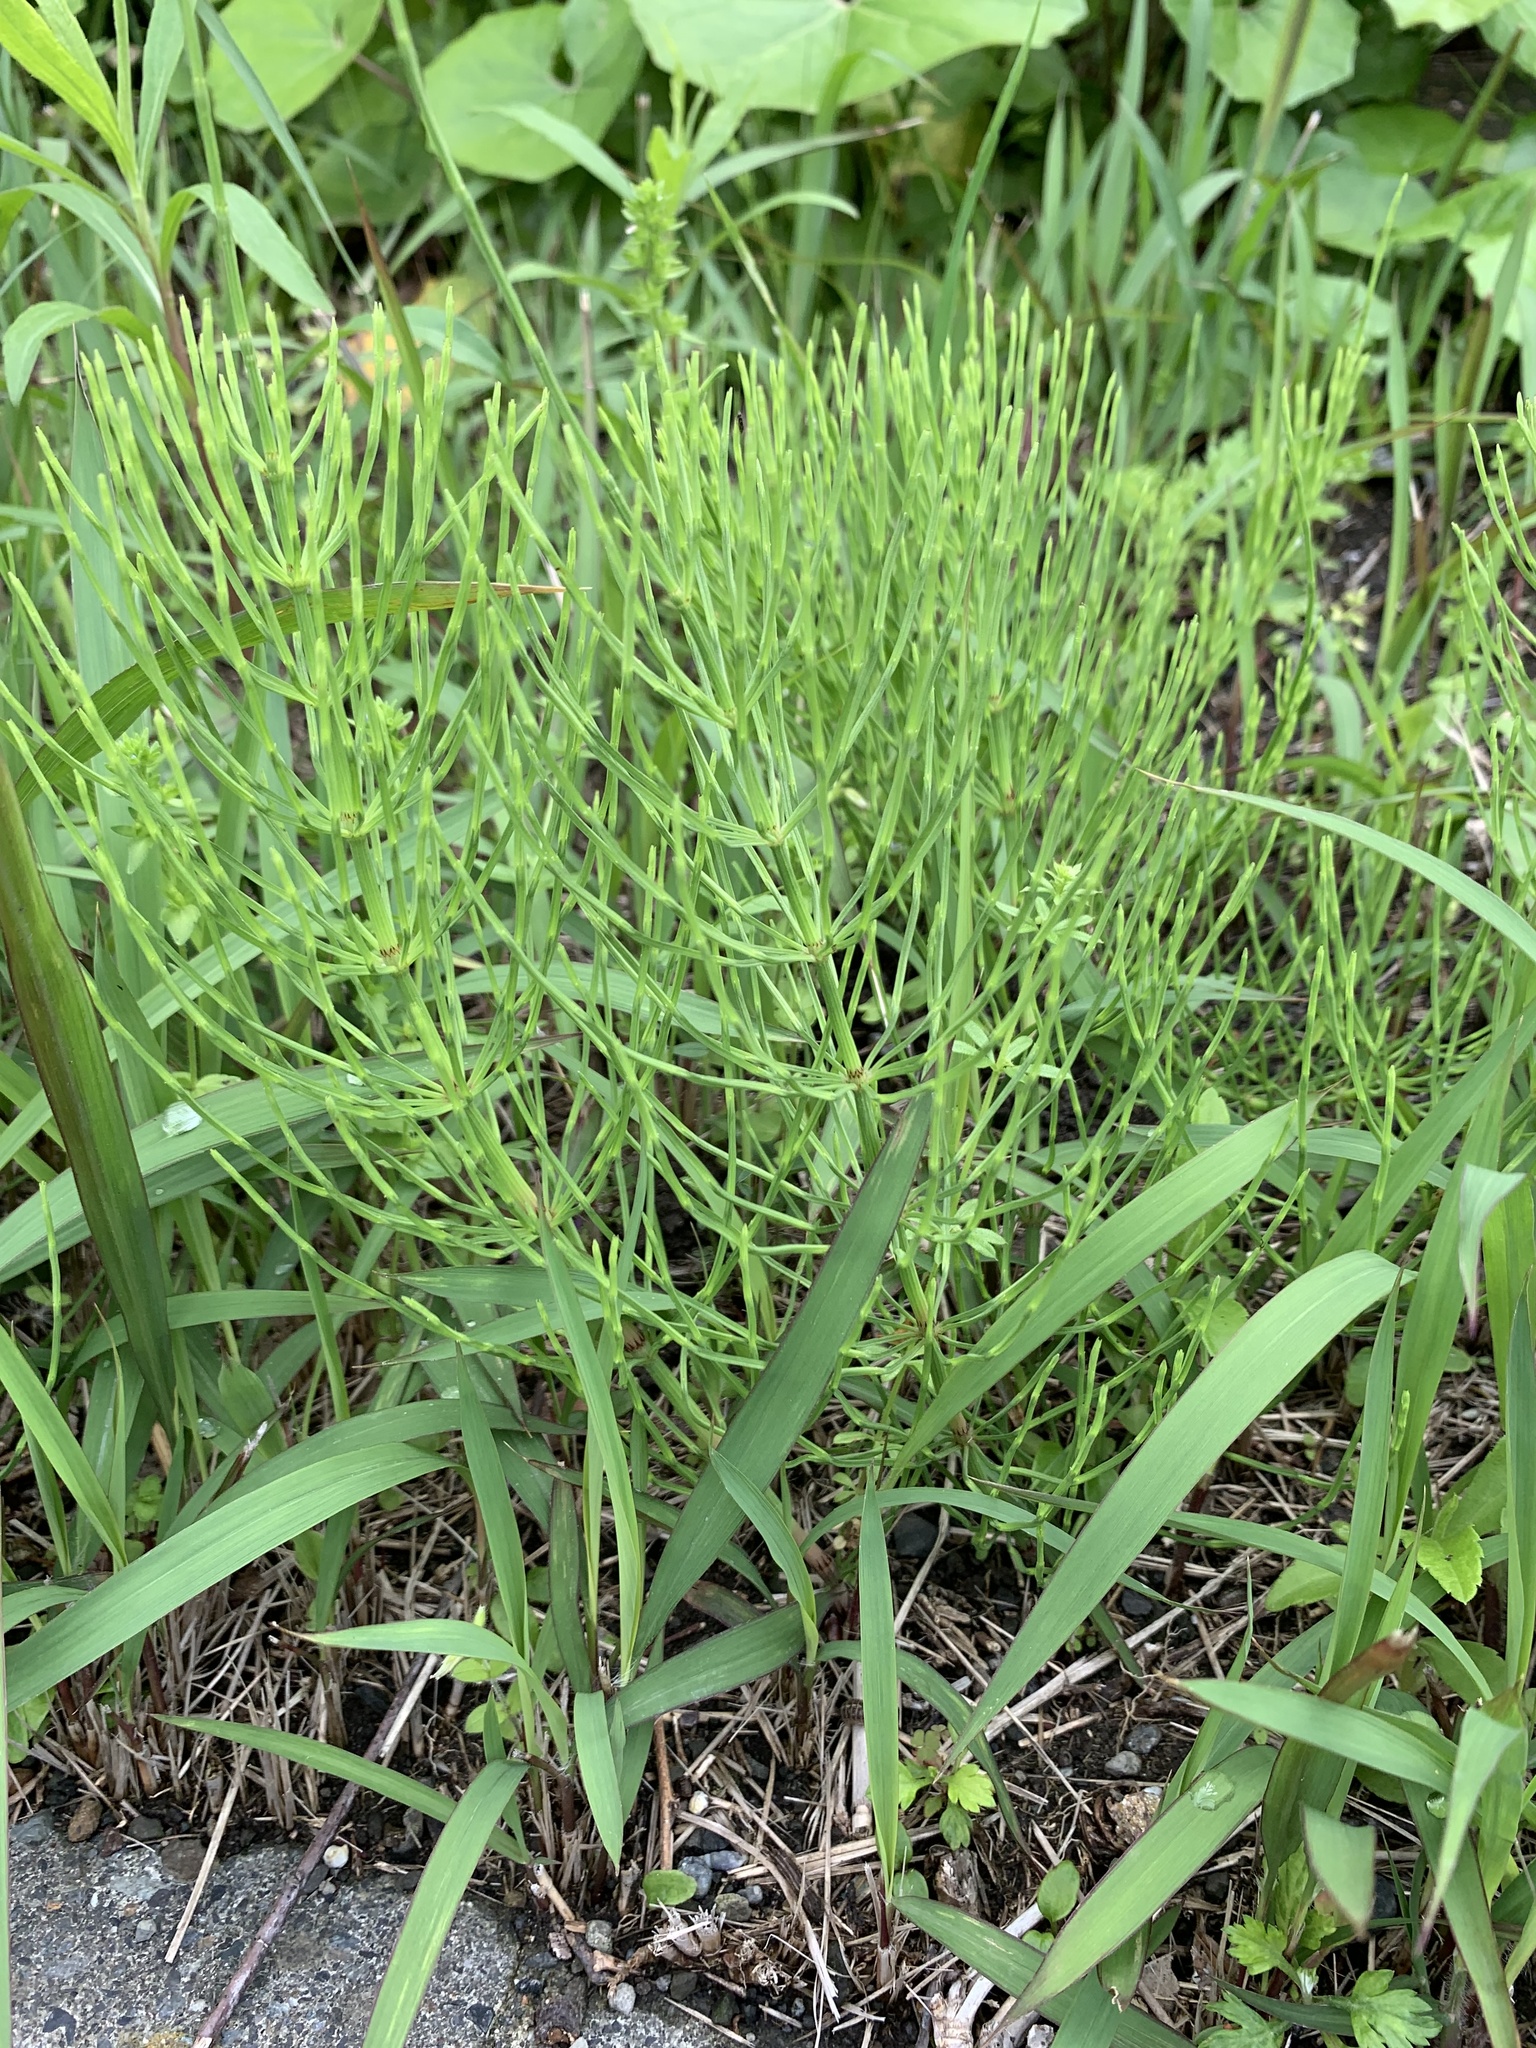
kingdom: Plantae
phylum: Tracheophyta
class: Polypodiopsida
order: Equisetales
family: Equisetaceae
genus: Equisetum
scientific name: Equisetum arvense
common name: Field horsetail
